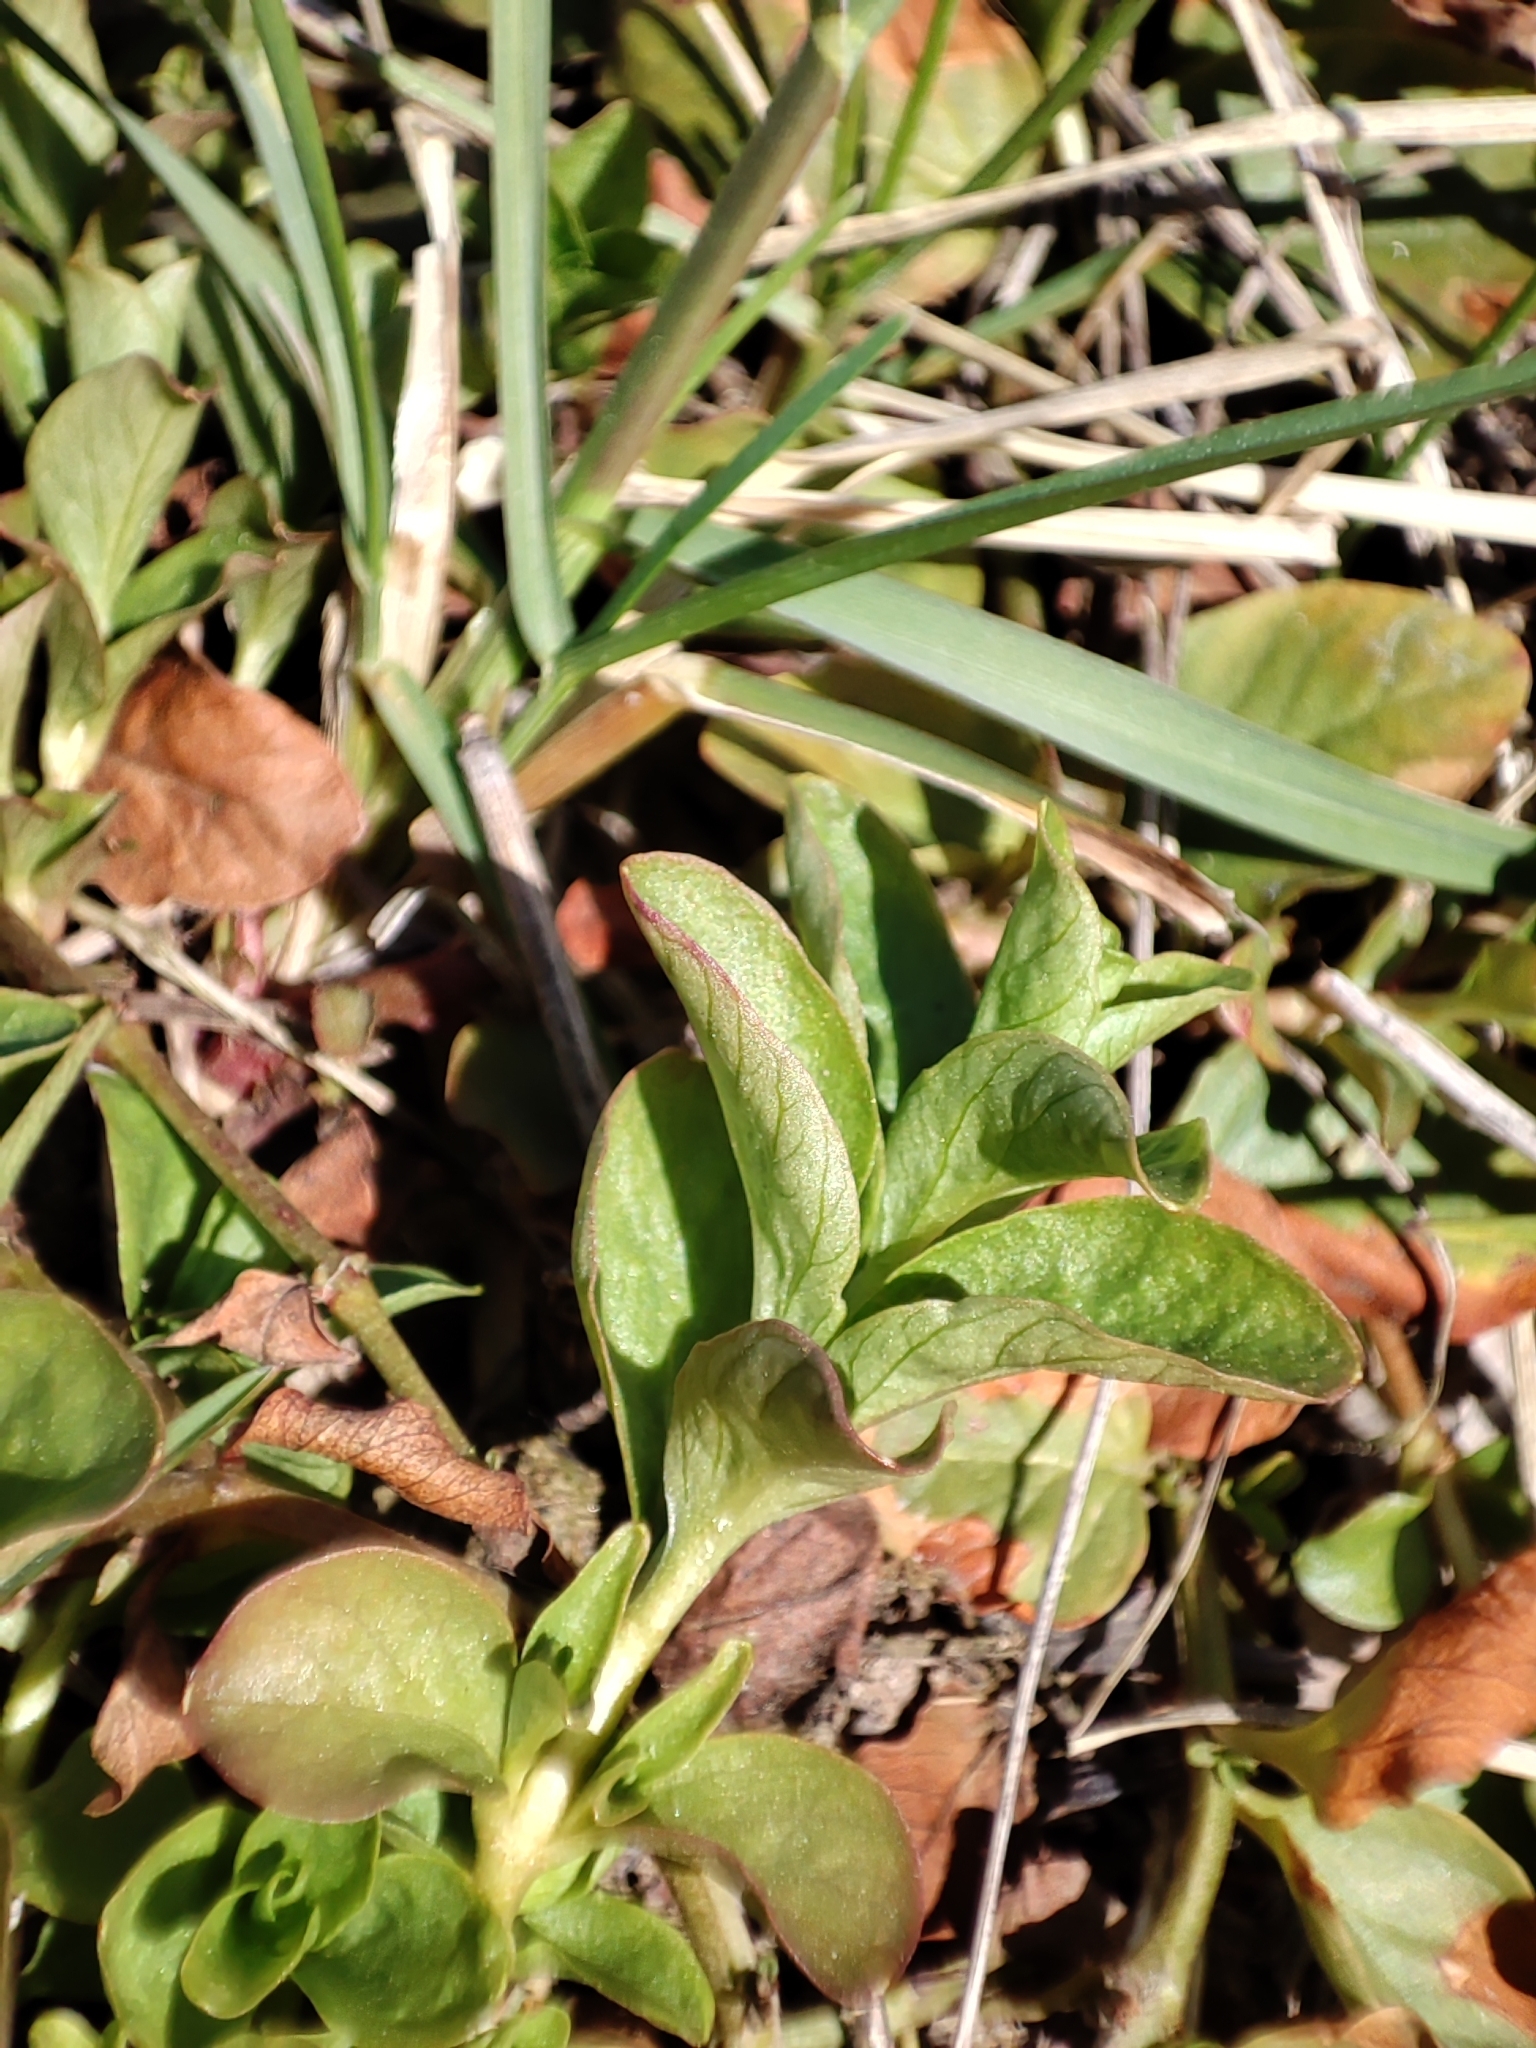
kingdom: Plantae
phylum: Tracheophyta
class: Magnoliopsida
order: Ericales
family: Primulaceae
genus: Lysimachia
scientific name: Lysimachia nummularia
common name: Moneywort
